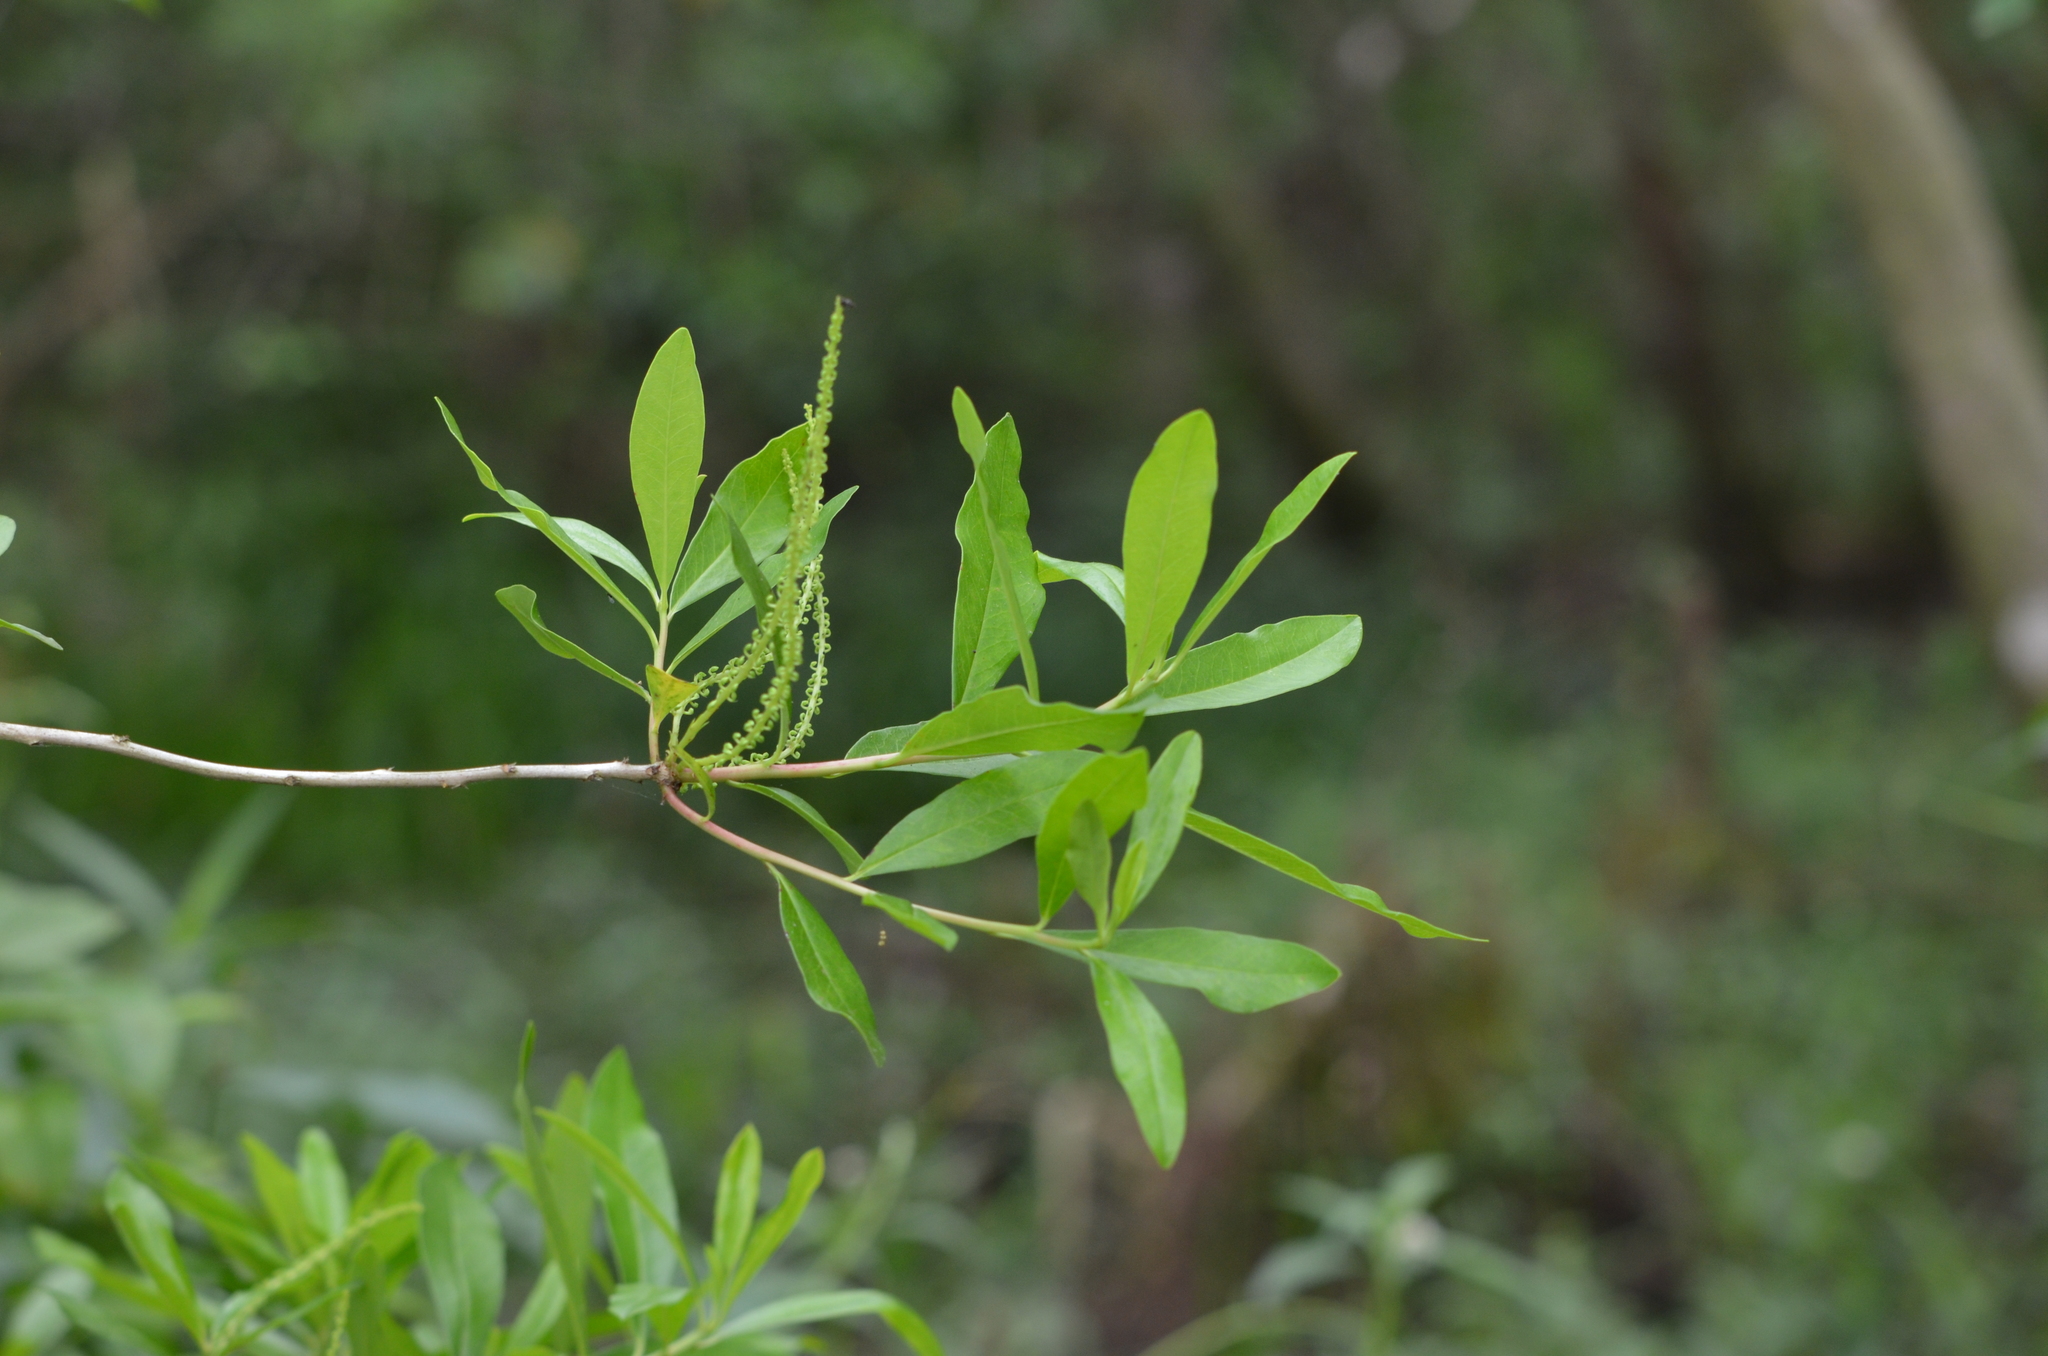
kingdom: Plantae
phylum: Tracheophyta
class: Magnoliopsida
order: Ericales
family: Cyrillaceae
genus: Cyrilla
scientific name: Cyrilla racemiflora
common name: Black titi
